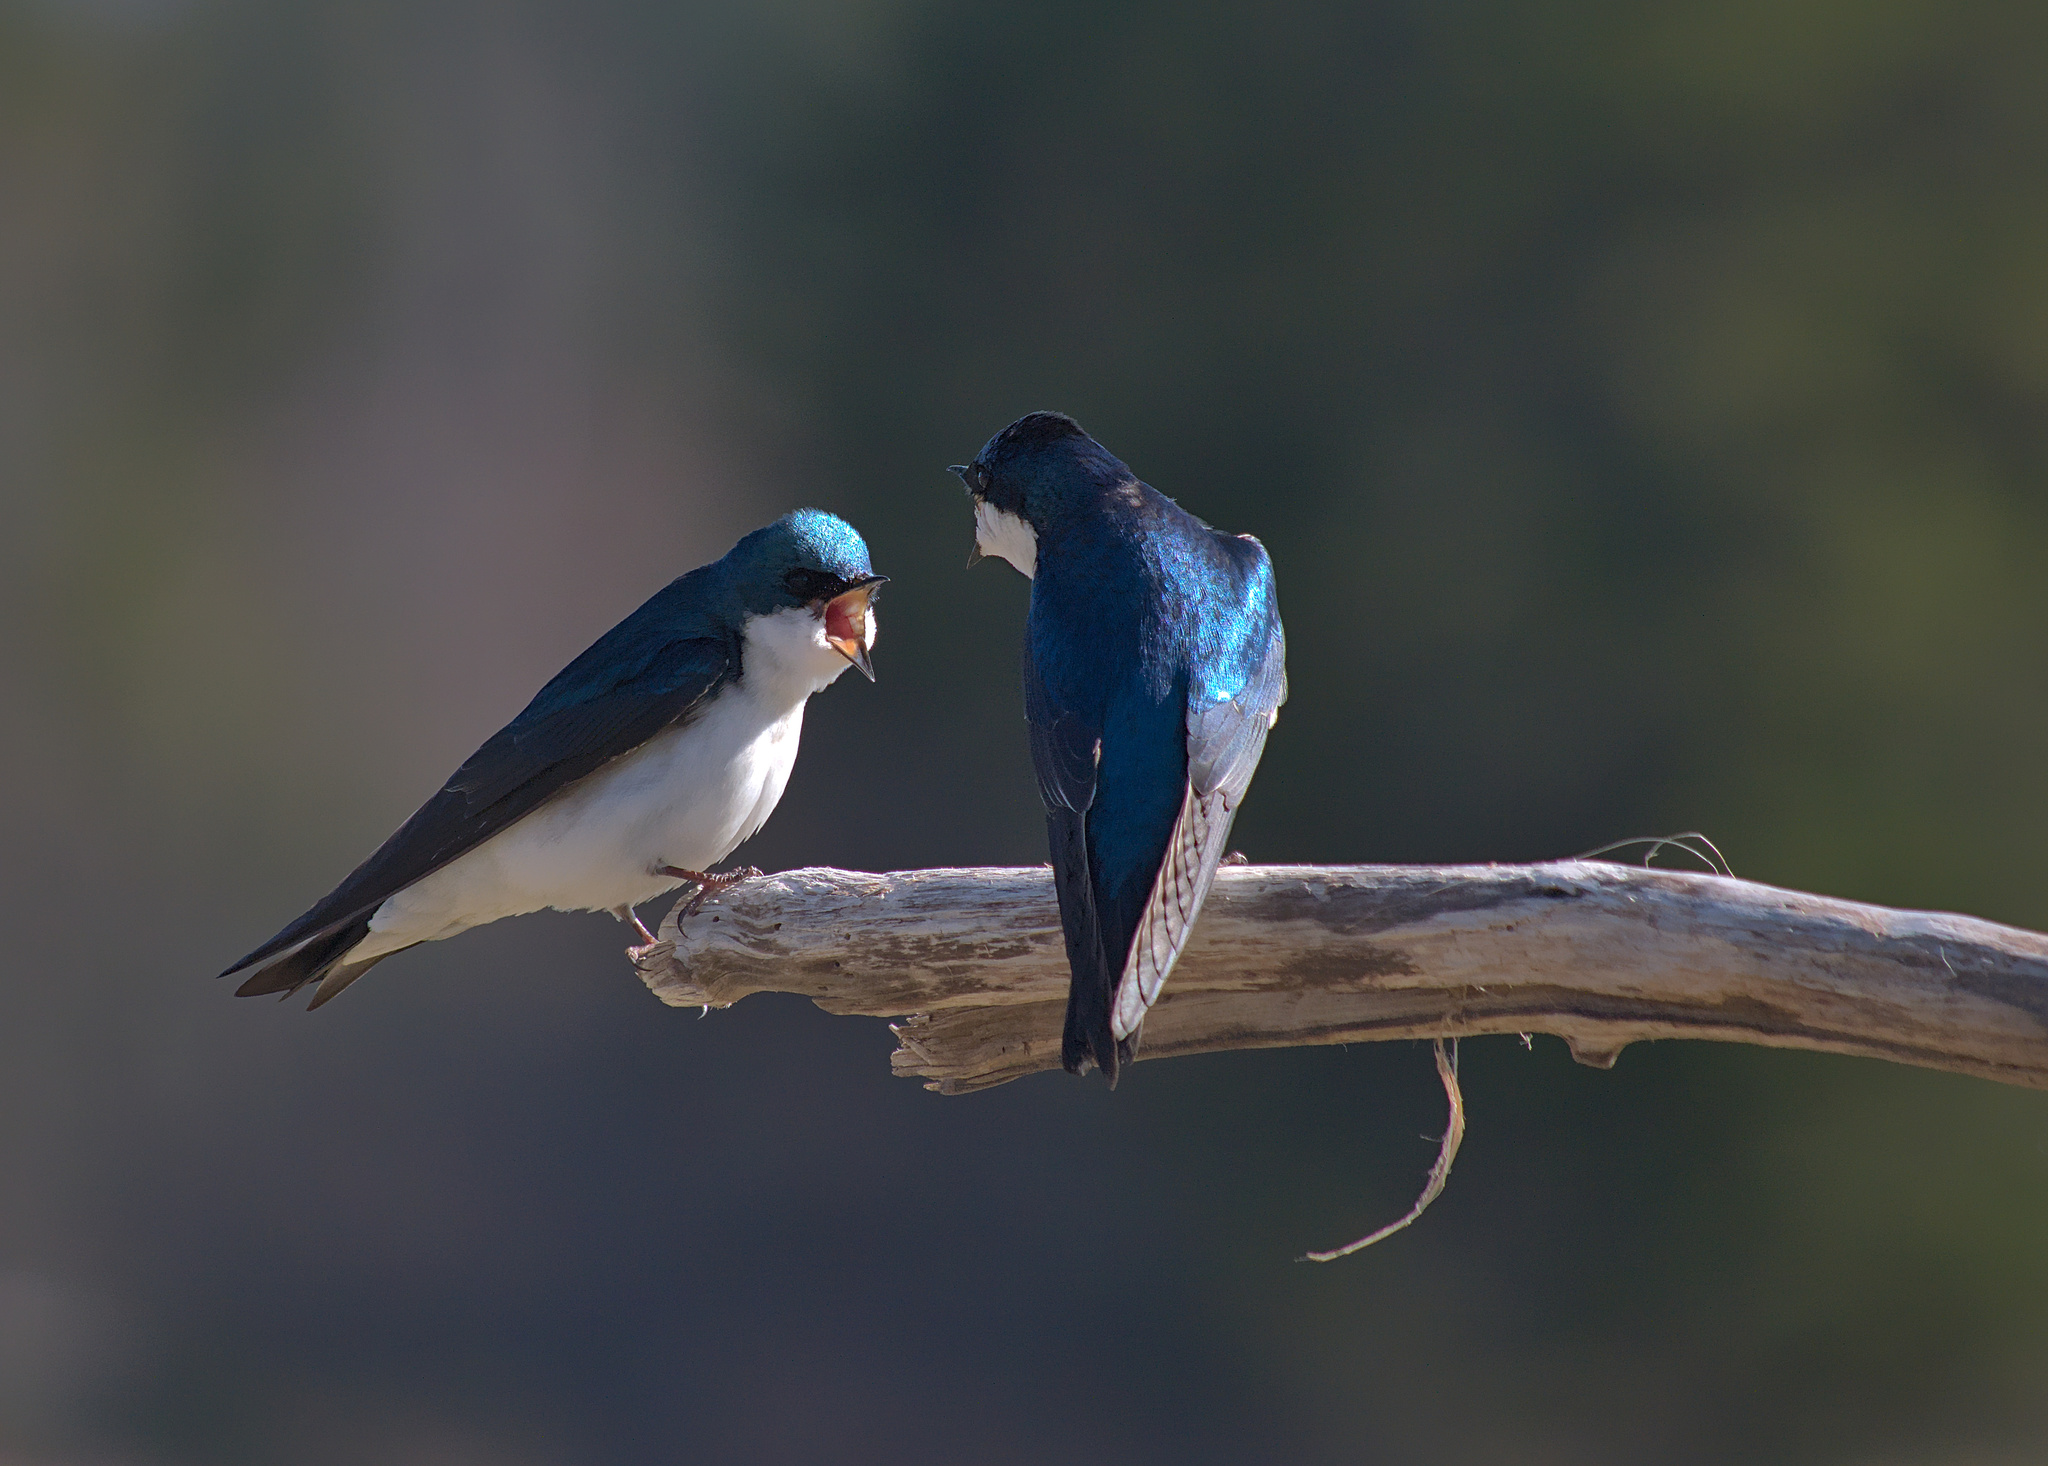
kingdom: Animalia
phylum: Chordata
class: Aves
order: Passeriformes
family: Hirundinidae
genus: Tachycineta
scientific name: Tachycineta bicolor
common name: Tree swallow
